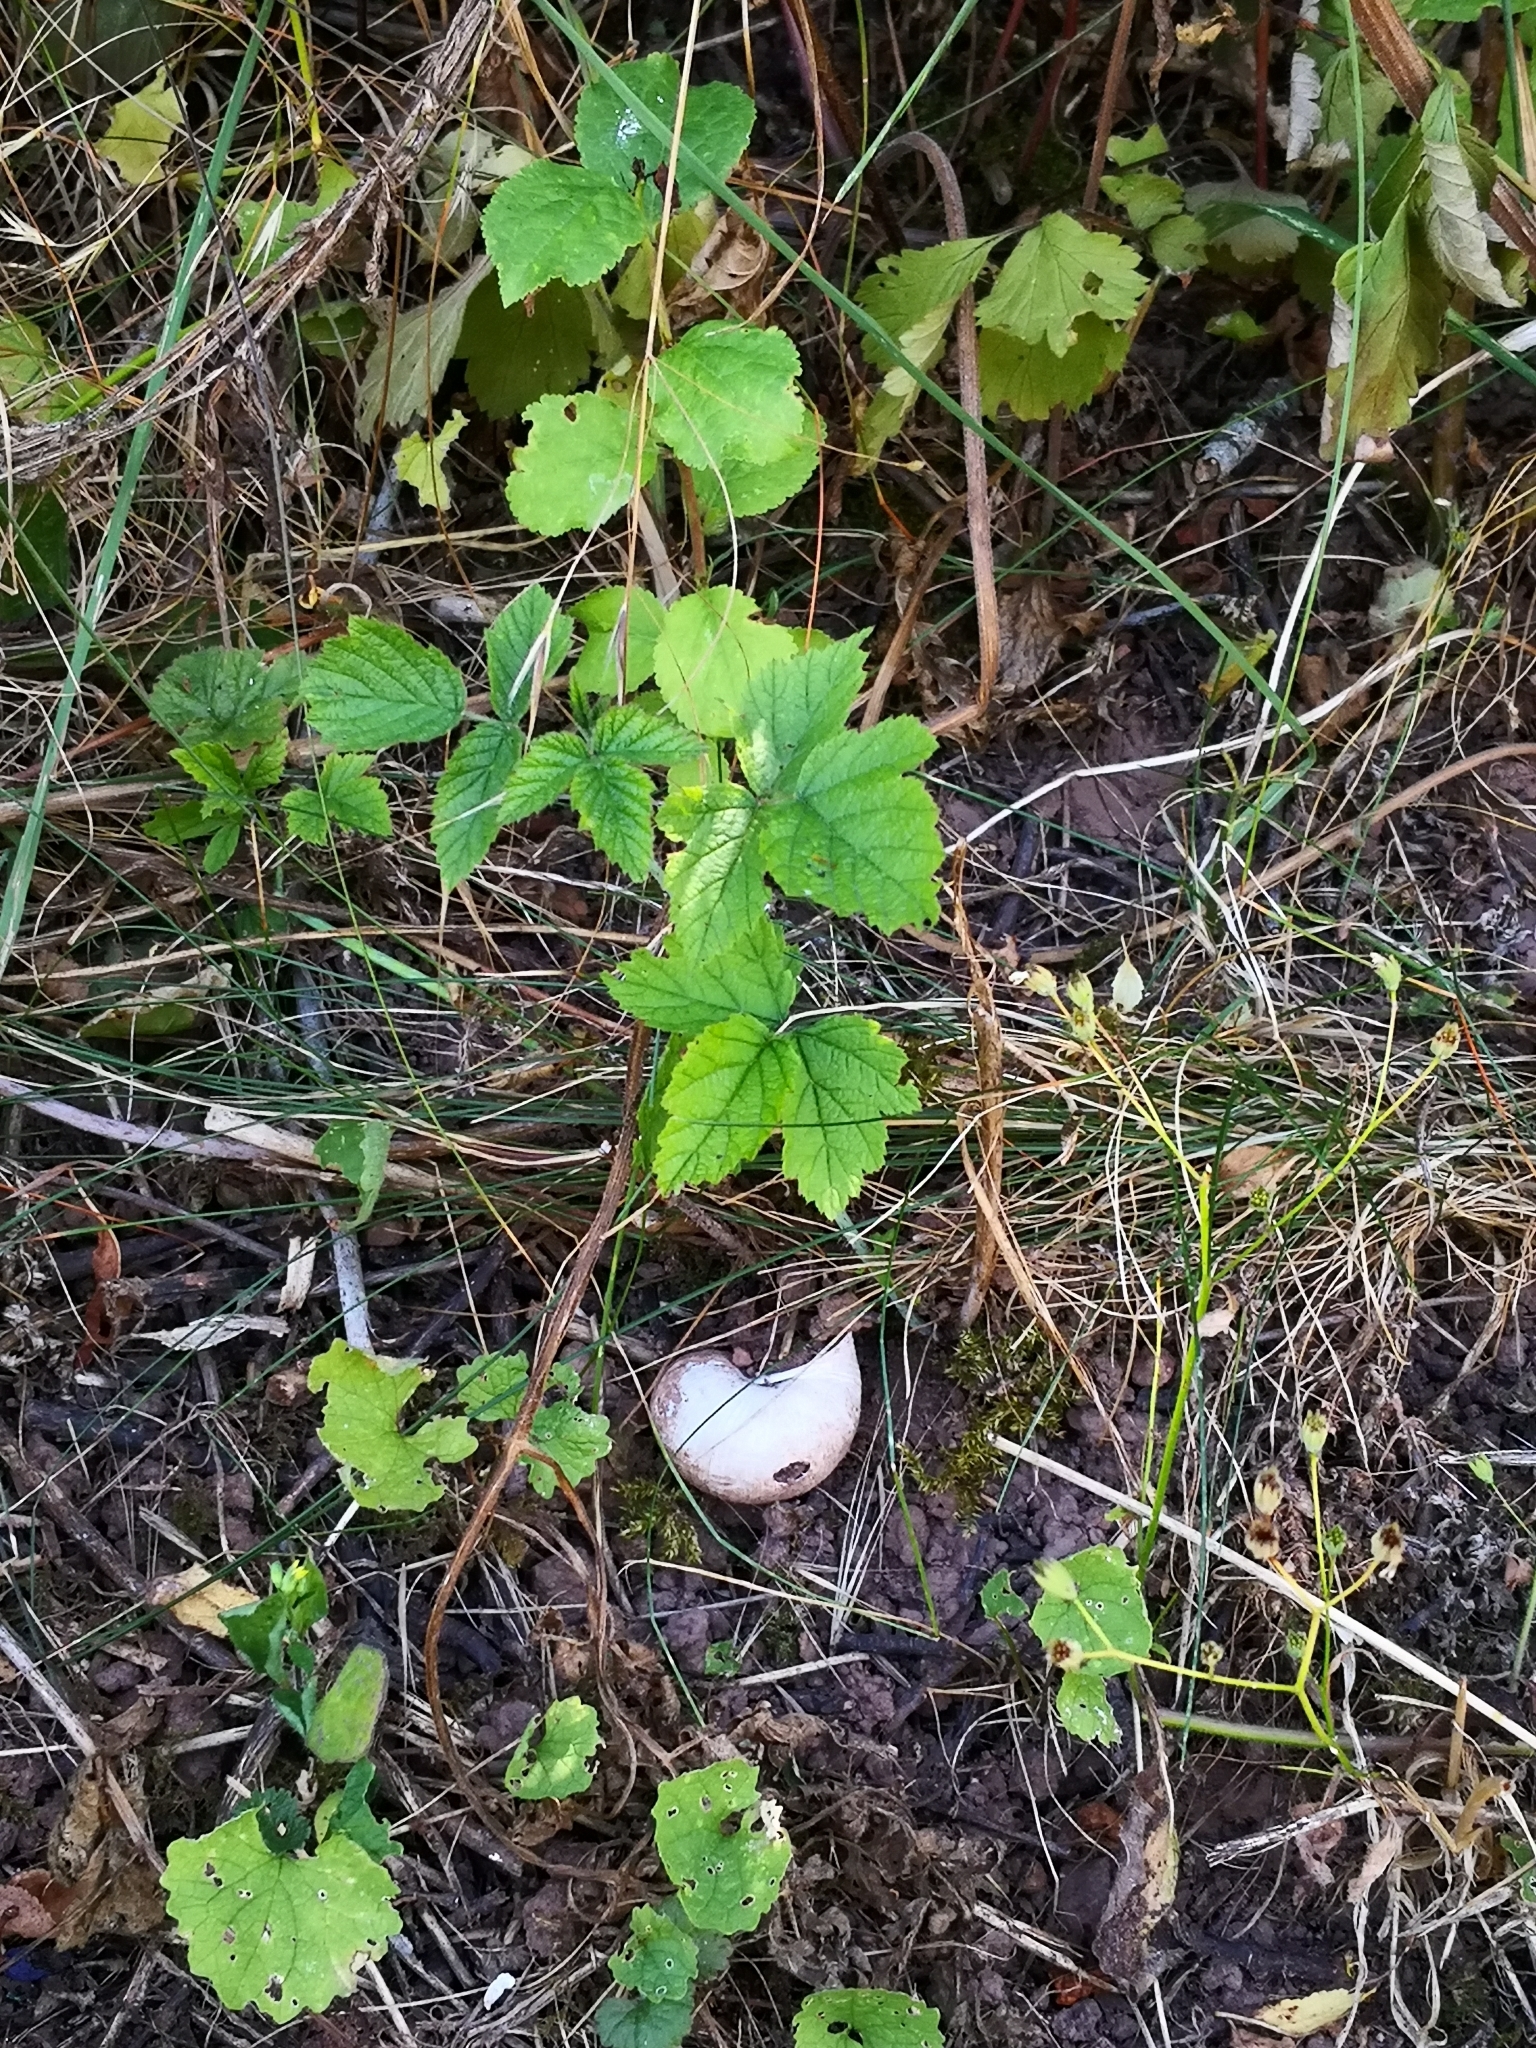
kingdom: Animalia
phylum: Mollusca
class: Gastropoda
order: Stylommatophora
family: Helicidae
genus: Helix
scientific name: Helix pomatia
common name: Roman snail
